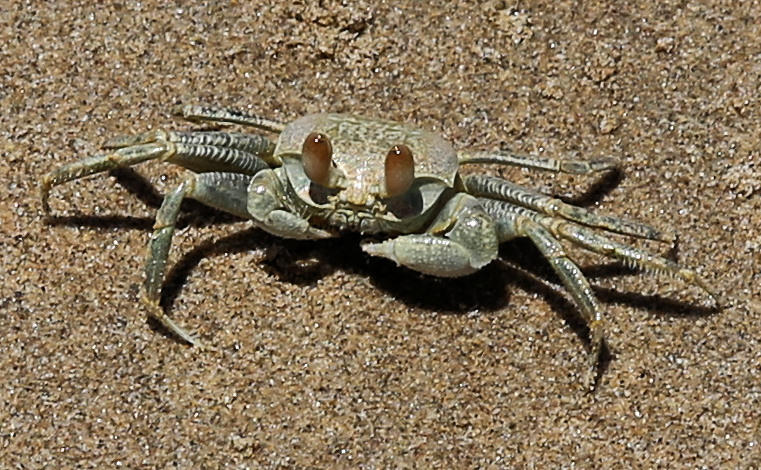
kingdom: Animalia
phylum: Arthropoda
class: Malacostraca
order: Decapoda
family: Ocypodidae
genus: Ocypode
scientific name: Ocypode ceratophthalmus
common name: Indo-pacific ghost crab
